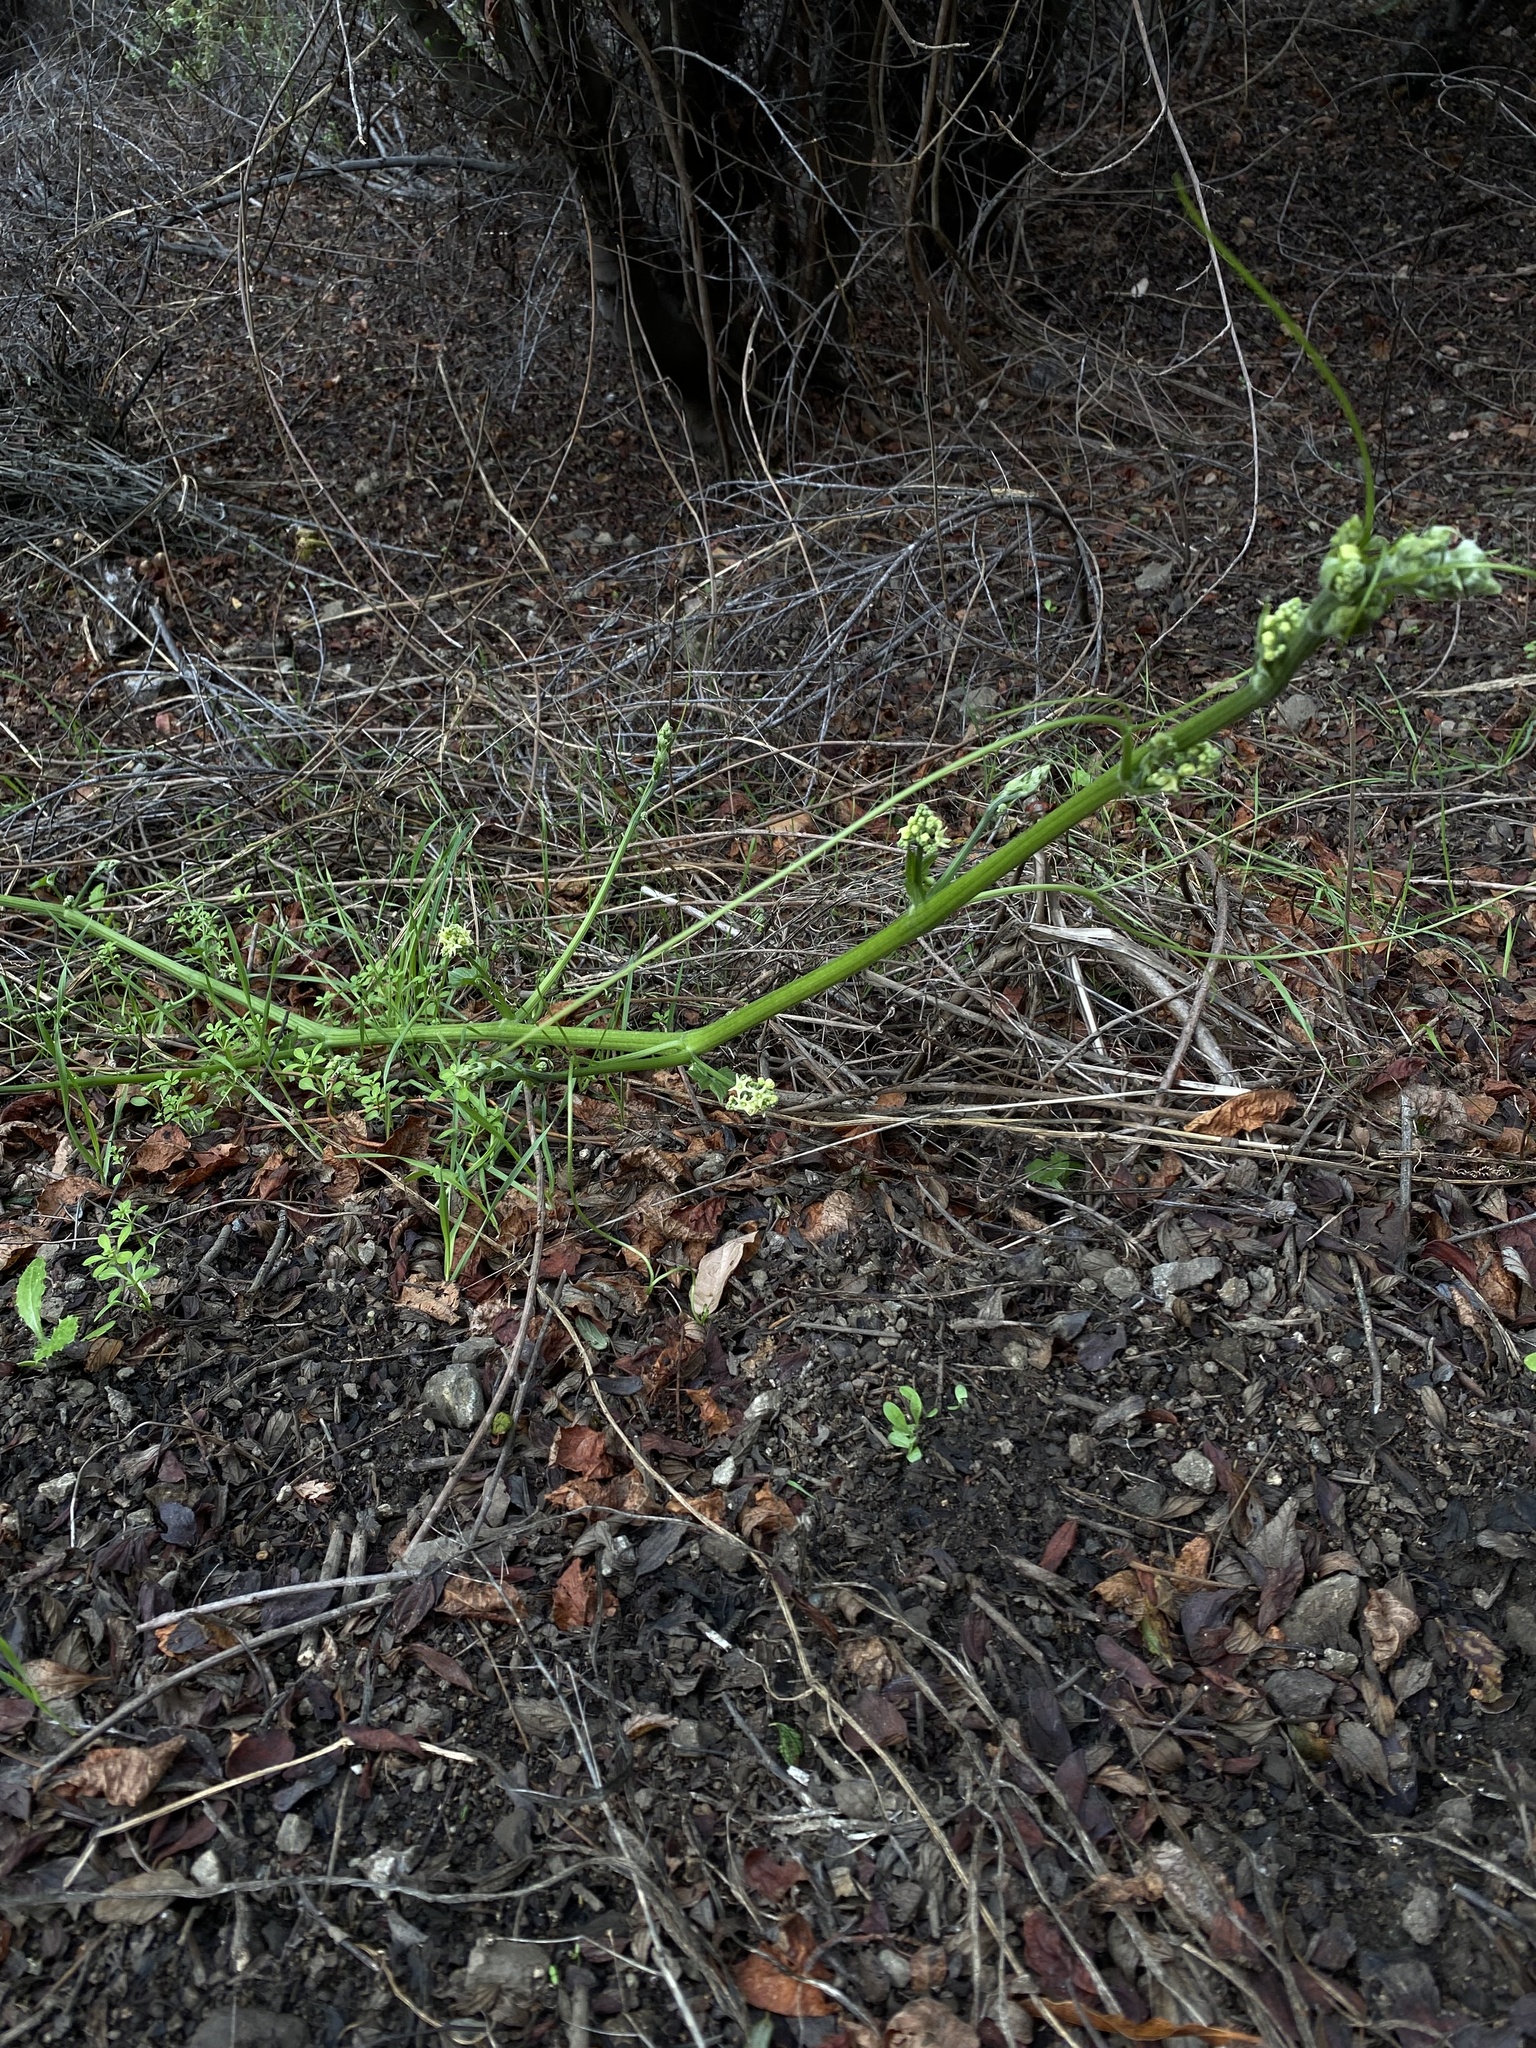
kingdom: Plantae
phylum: Tracheophyta
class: Magnoliopsida
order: Cucurbitales
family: Cucurbitaceae
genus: Marah
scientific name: Marah fabacea
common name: California manroot
